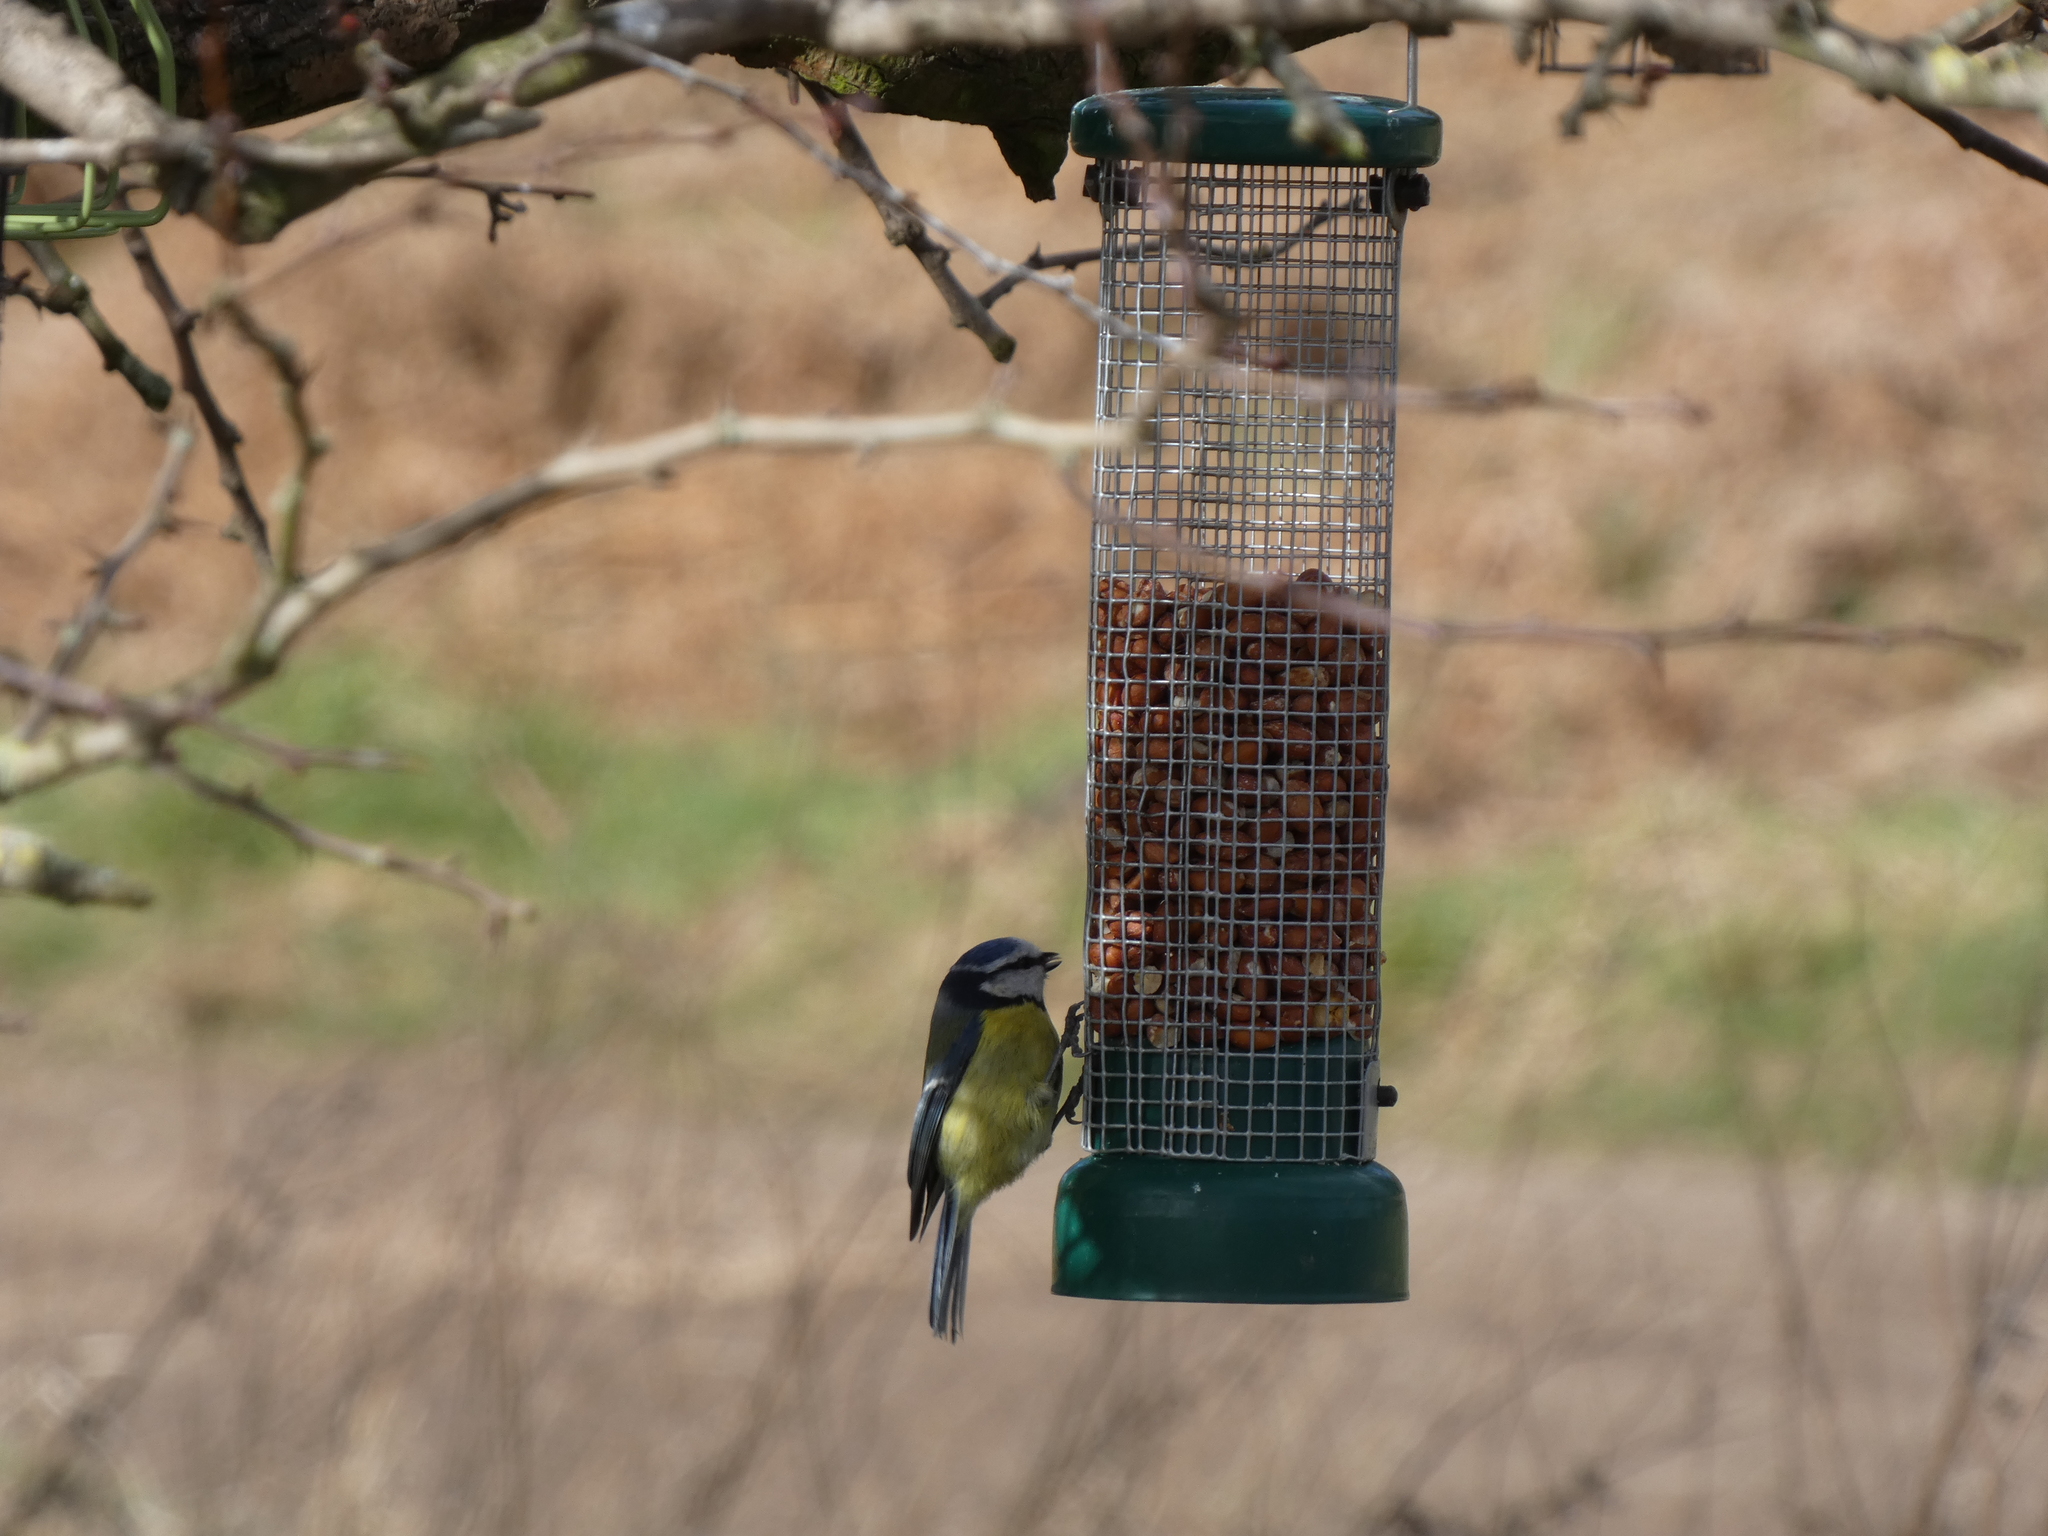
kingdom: Animalia
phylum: Chordata
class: Aves
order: Passeriformes
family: Paridae
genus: Cyanistes
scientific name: Cyanistes caeruleus
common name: Eurasian blue tit
